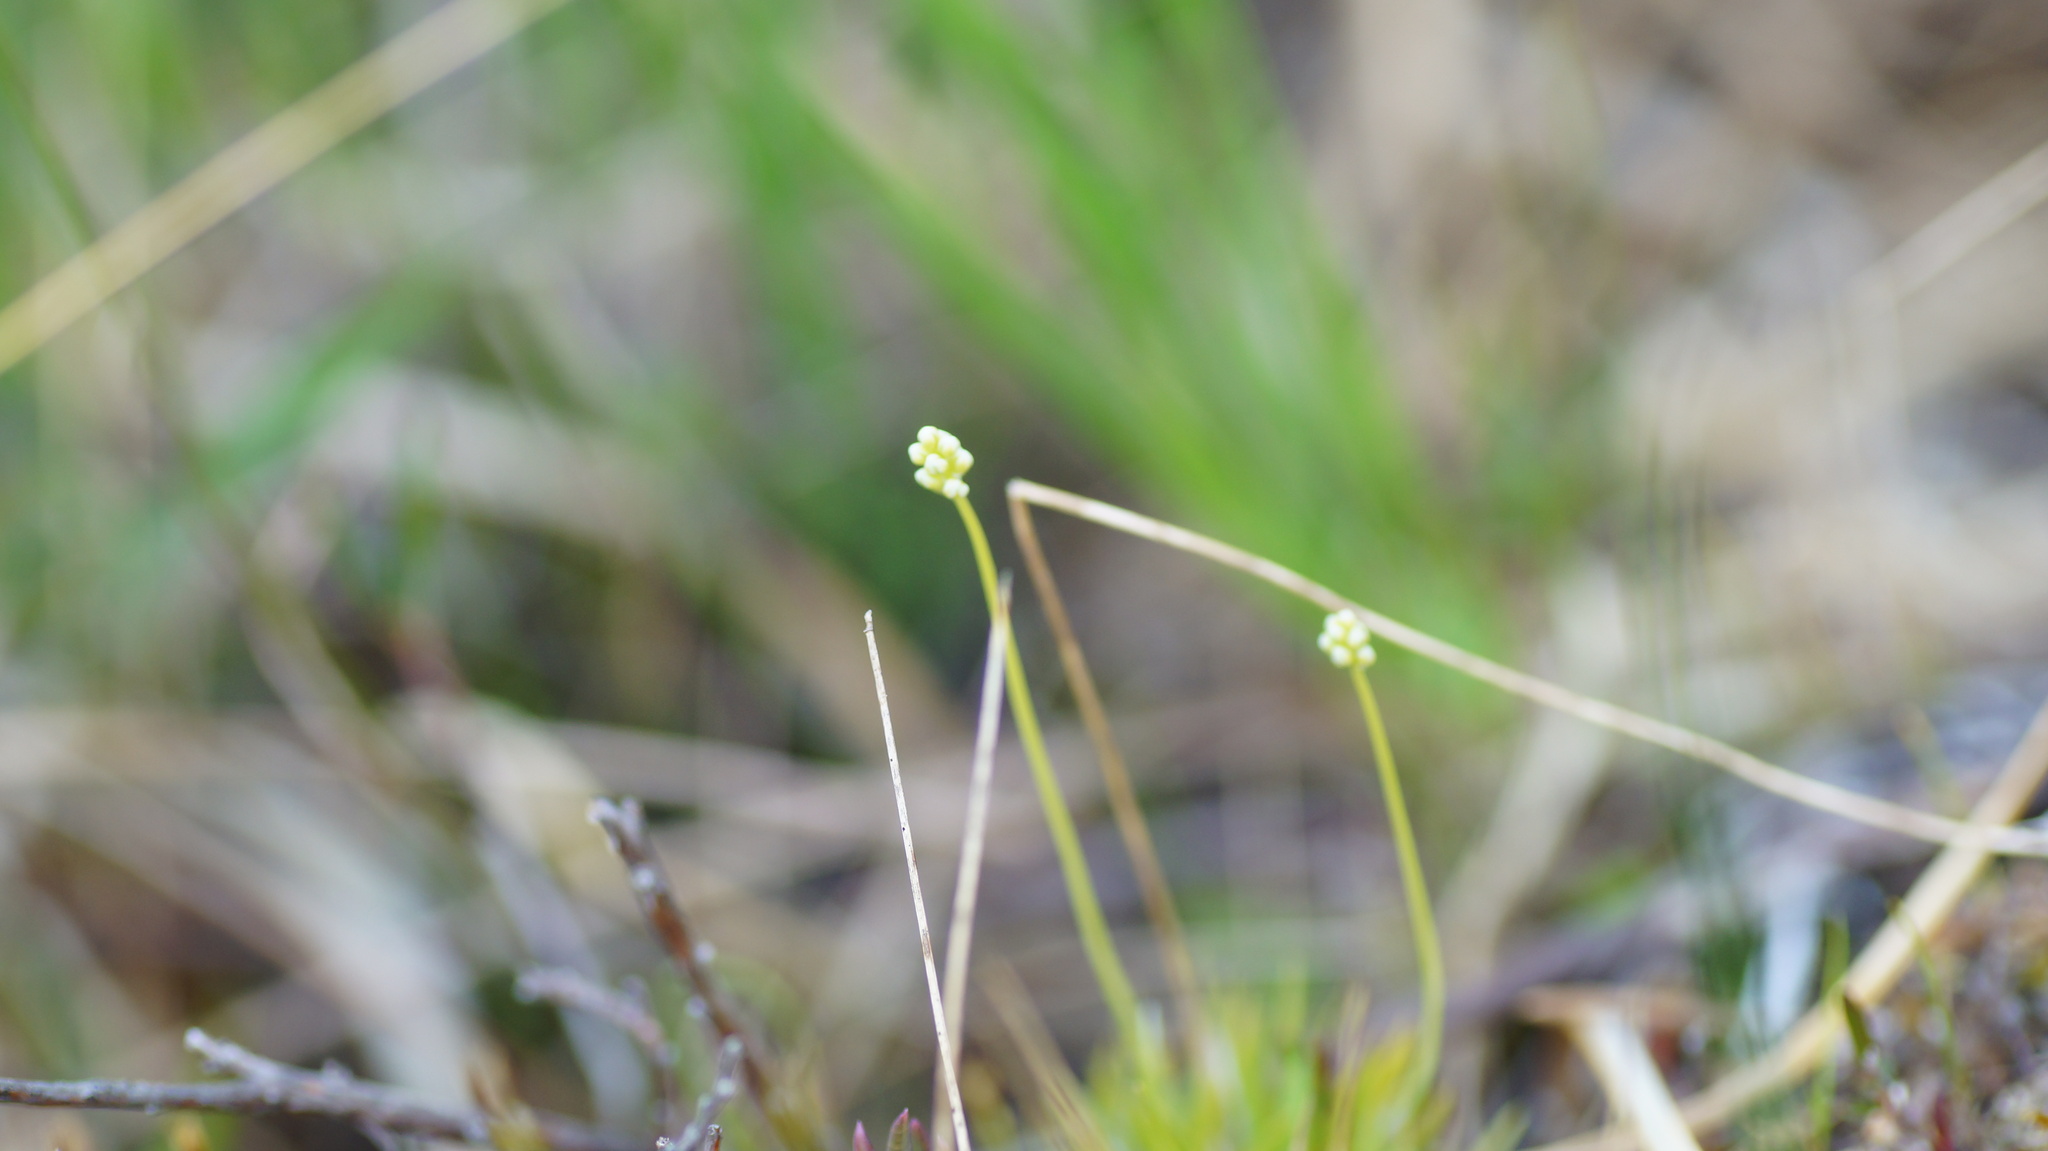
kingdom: Plantae
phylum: Tracheophyta
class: Liliopsida
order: Alismatales
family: Tofieldiaceae
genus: Tofieldia
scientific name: Tofieldia pusilla
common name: Scottish false asphodel
